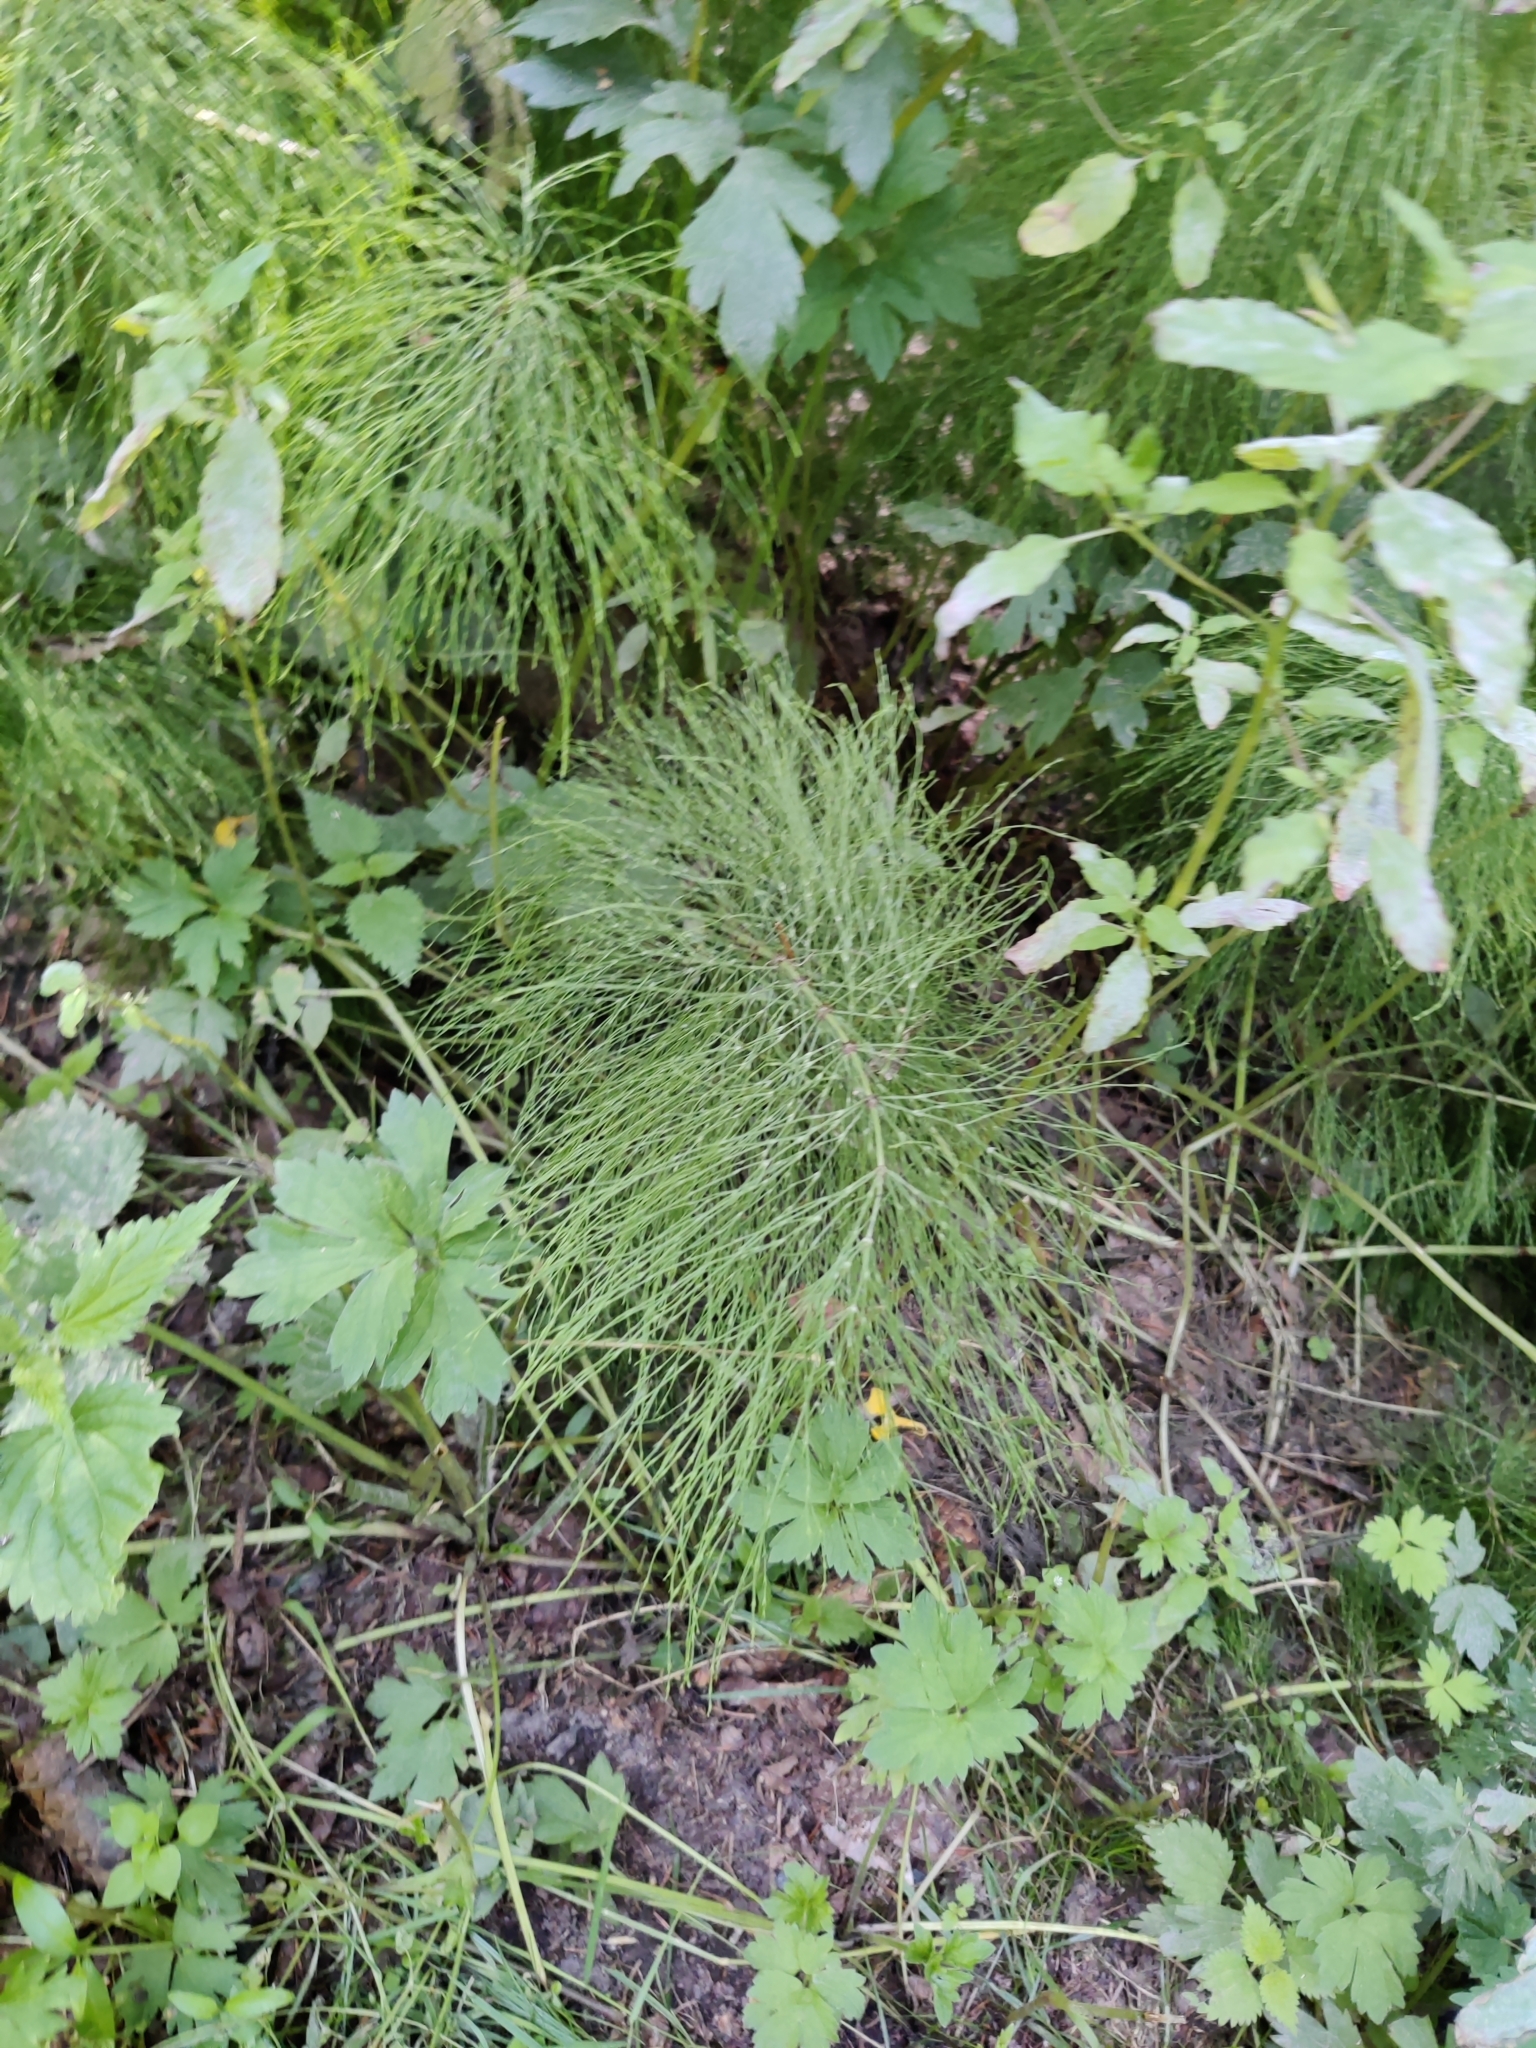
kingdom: Plantae
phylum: Tracheophyta
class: Polypodiopsida
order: Equisetales
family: Equisetaceae
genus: Equisetum
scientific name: Equisetum sylvaticum
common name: Wood horsetail
